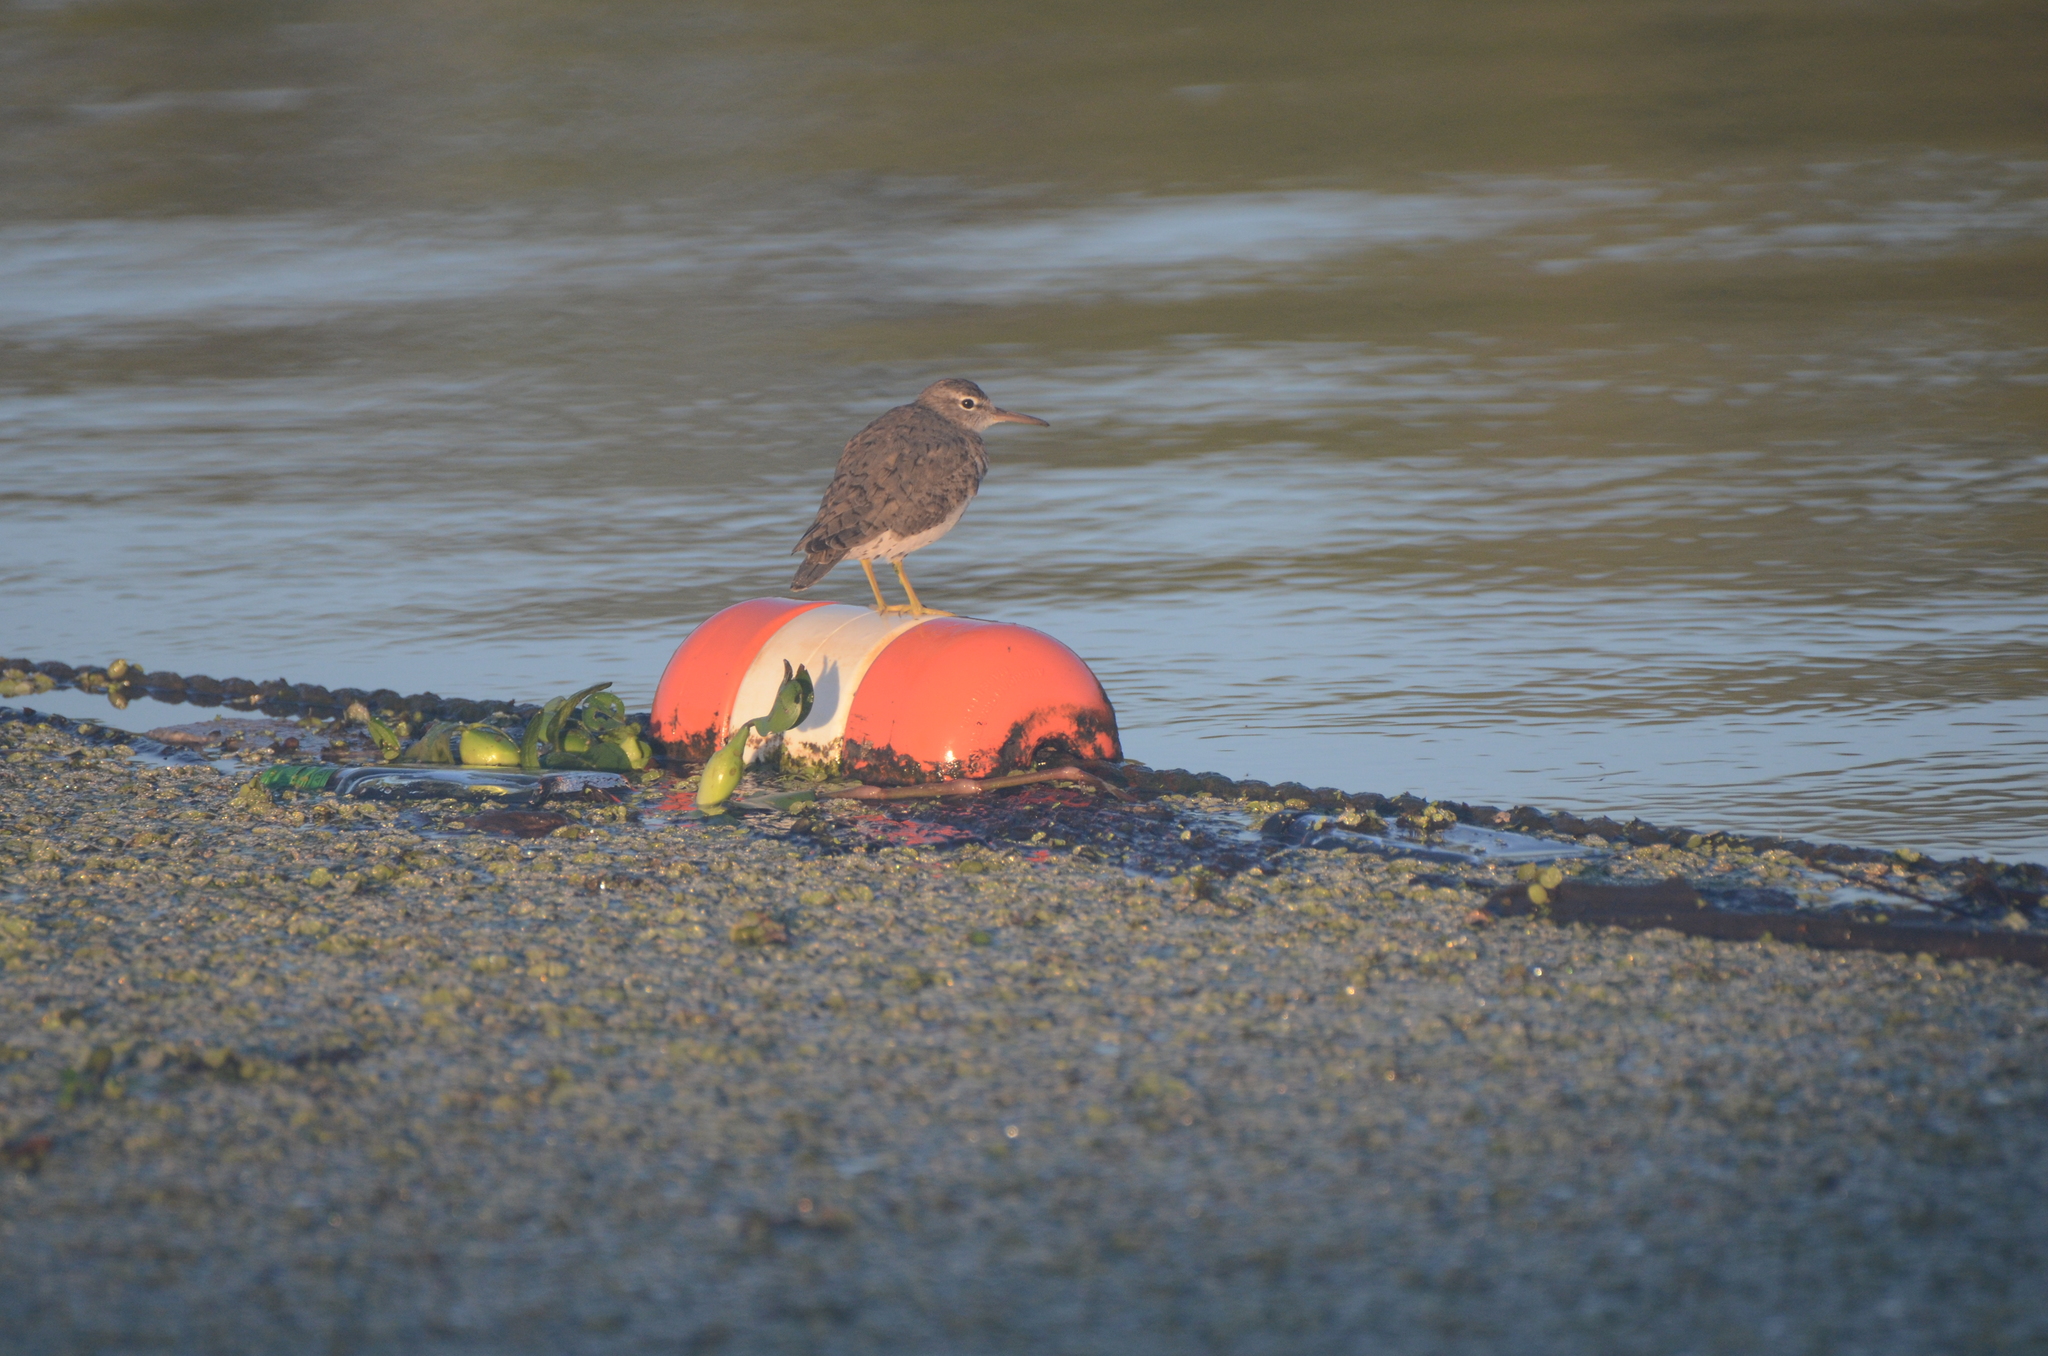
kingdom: Animalia
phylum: Chordata
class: Aves
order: Charadriiformes
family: Scolopacidae
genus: Actitis
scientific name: Actitis macularius
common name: Spotted sandpiper
